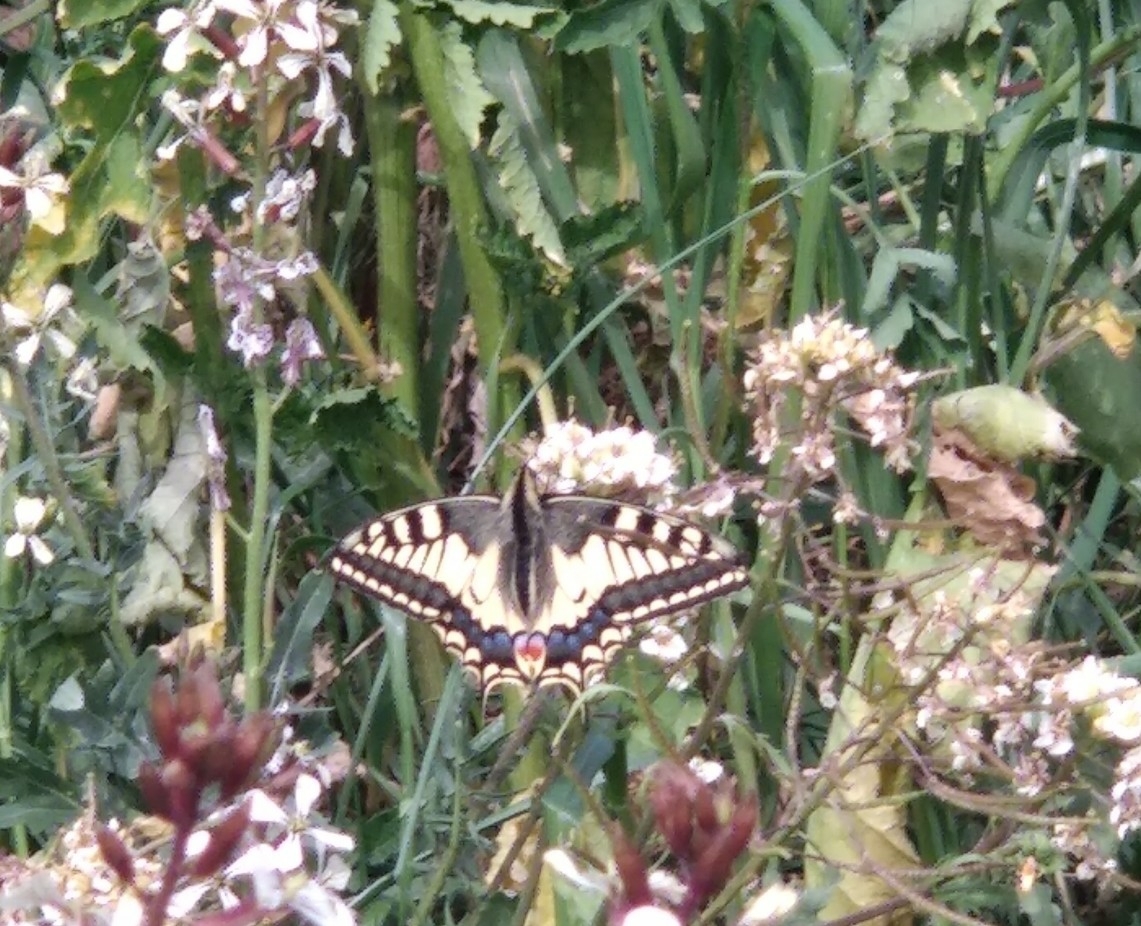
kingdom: Animalia
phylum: Arthropoda
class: Insecta
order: Lepidoptera
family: Papilionidae
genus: Papilio
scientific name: Papilio machaon
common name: Swallowtail
